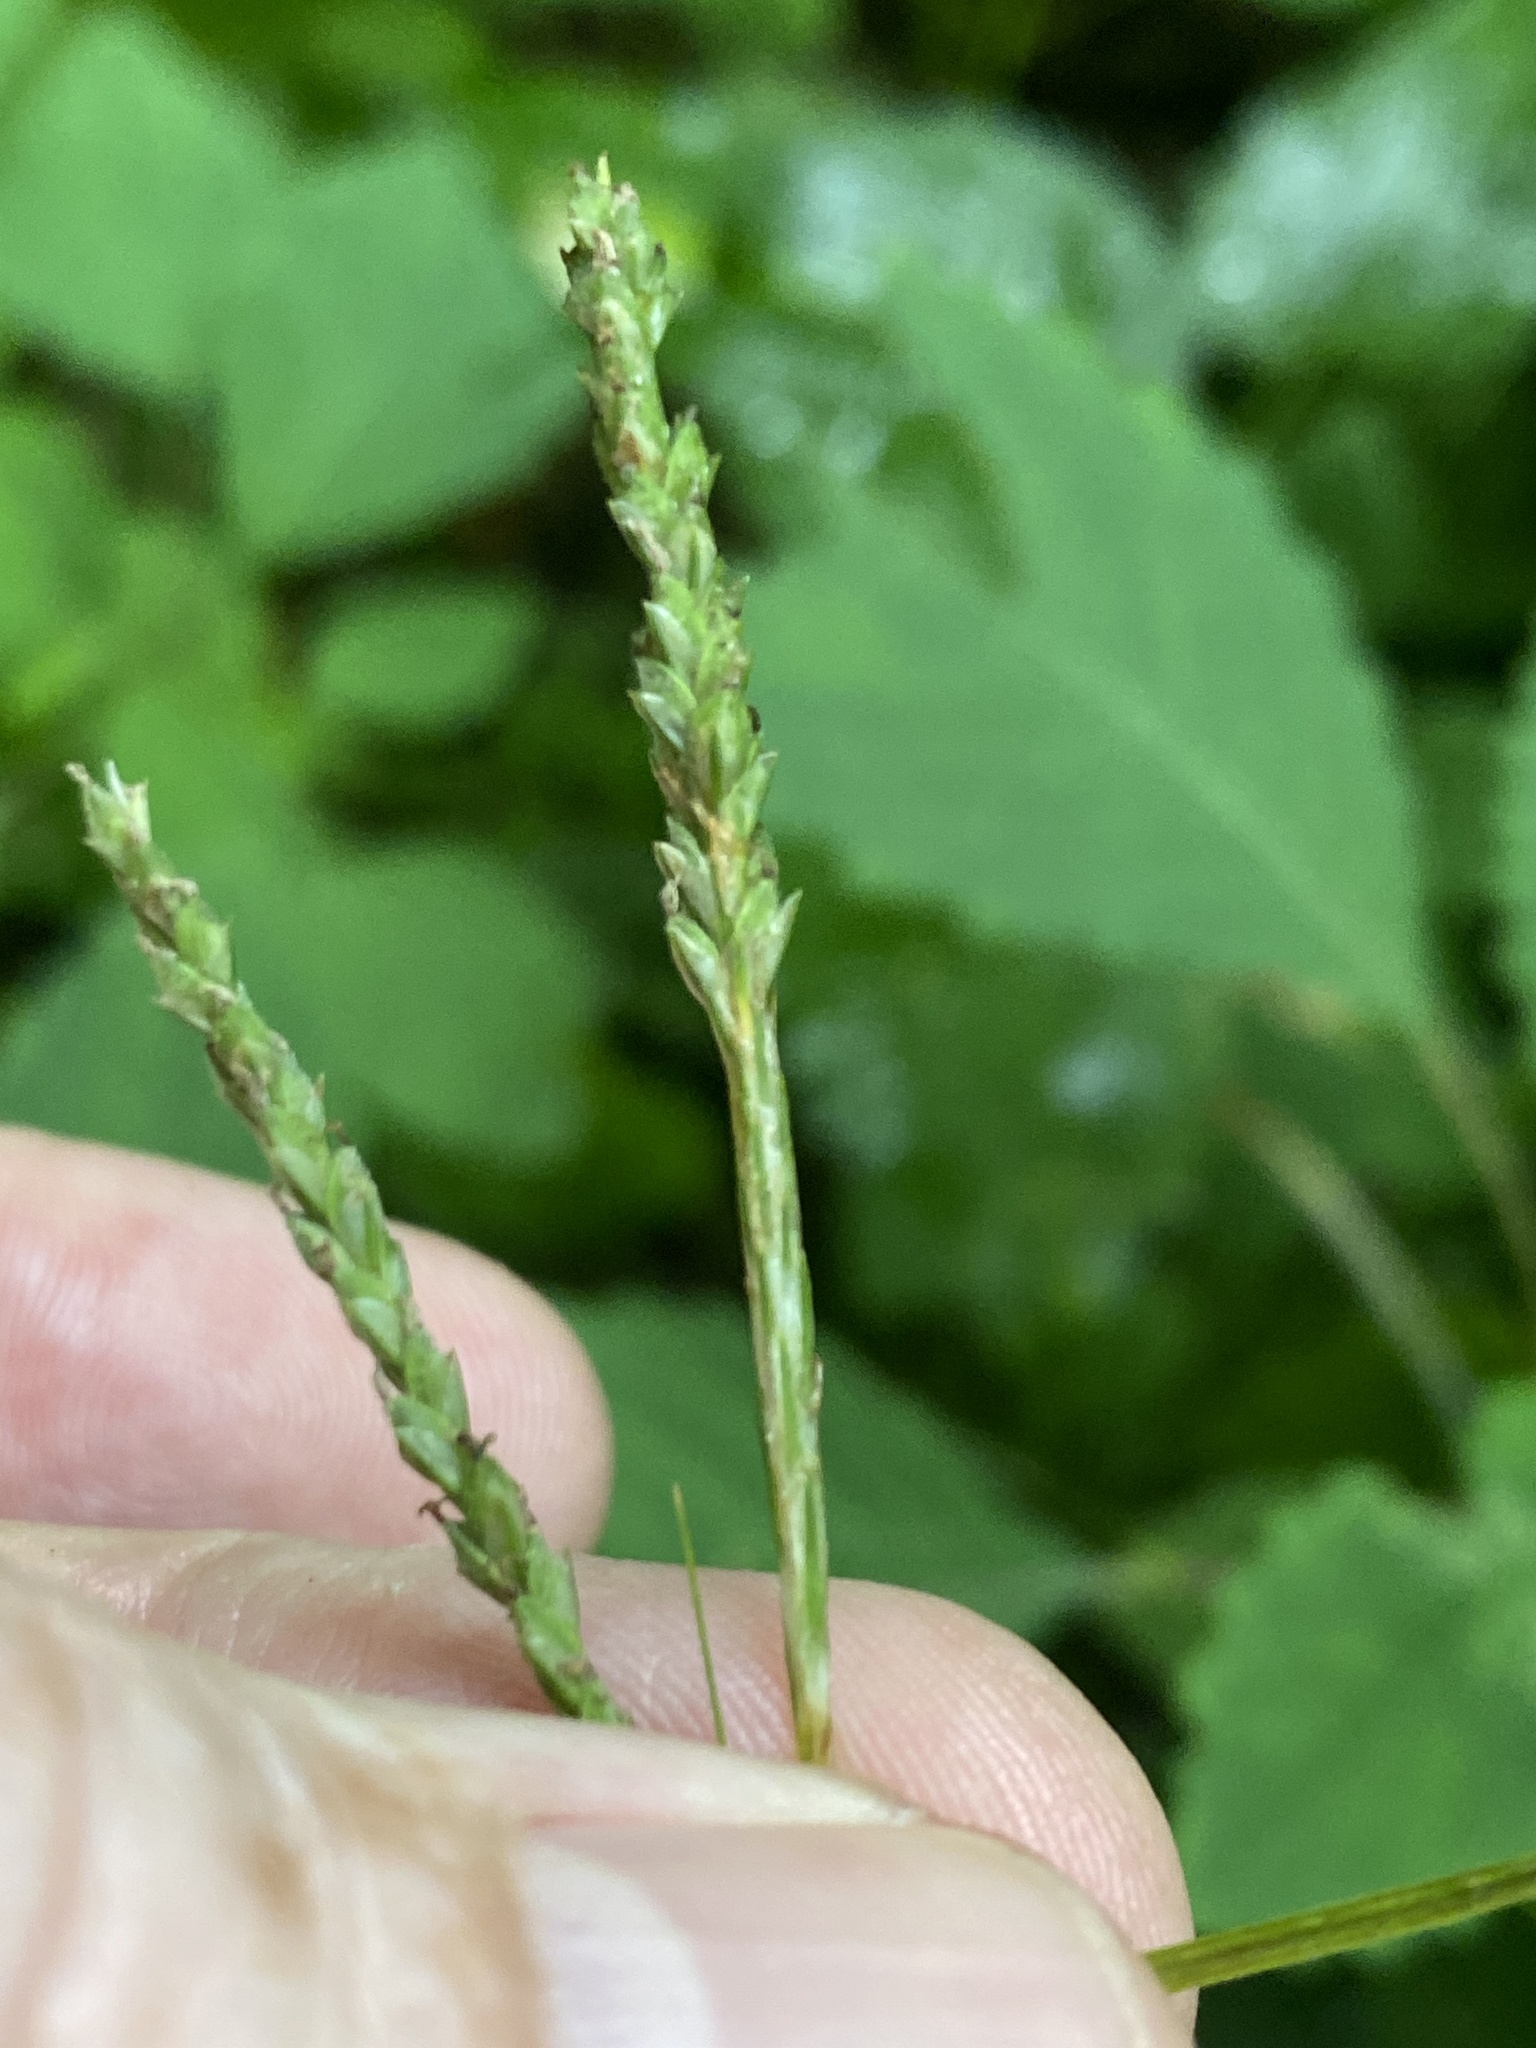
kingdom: Plantae
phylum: Tracheophyta
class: Liliopsida
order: Poales
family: Cyperaceae
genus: Carex
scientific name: Carex roanensis
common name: Roan mountain sedge
